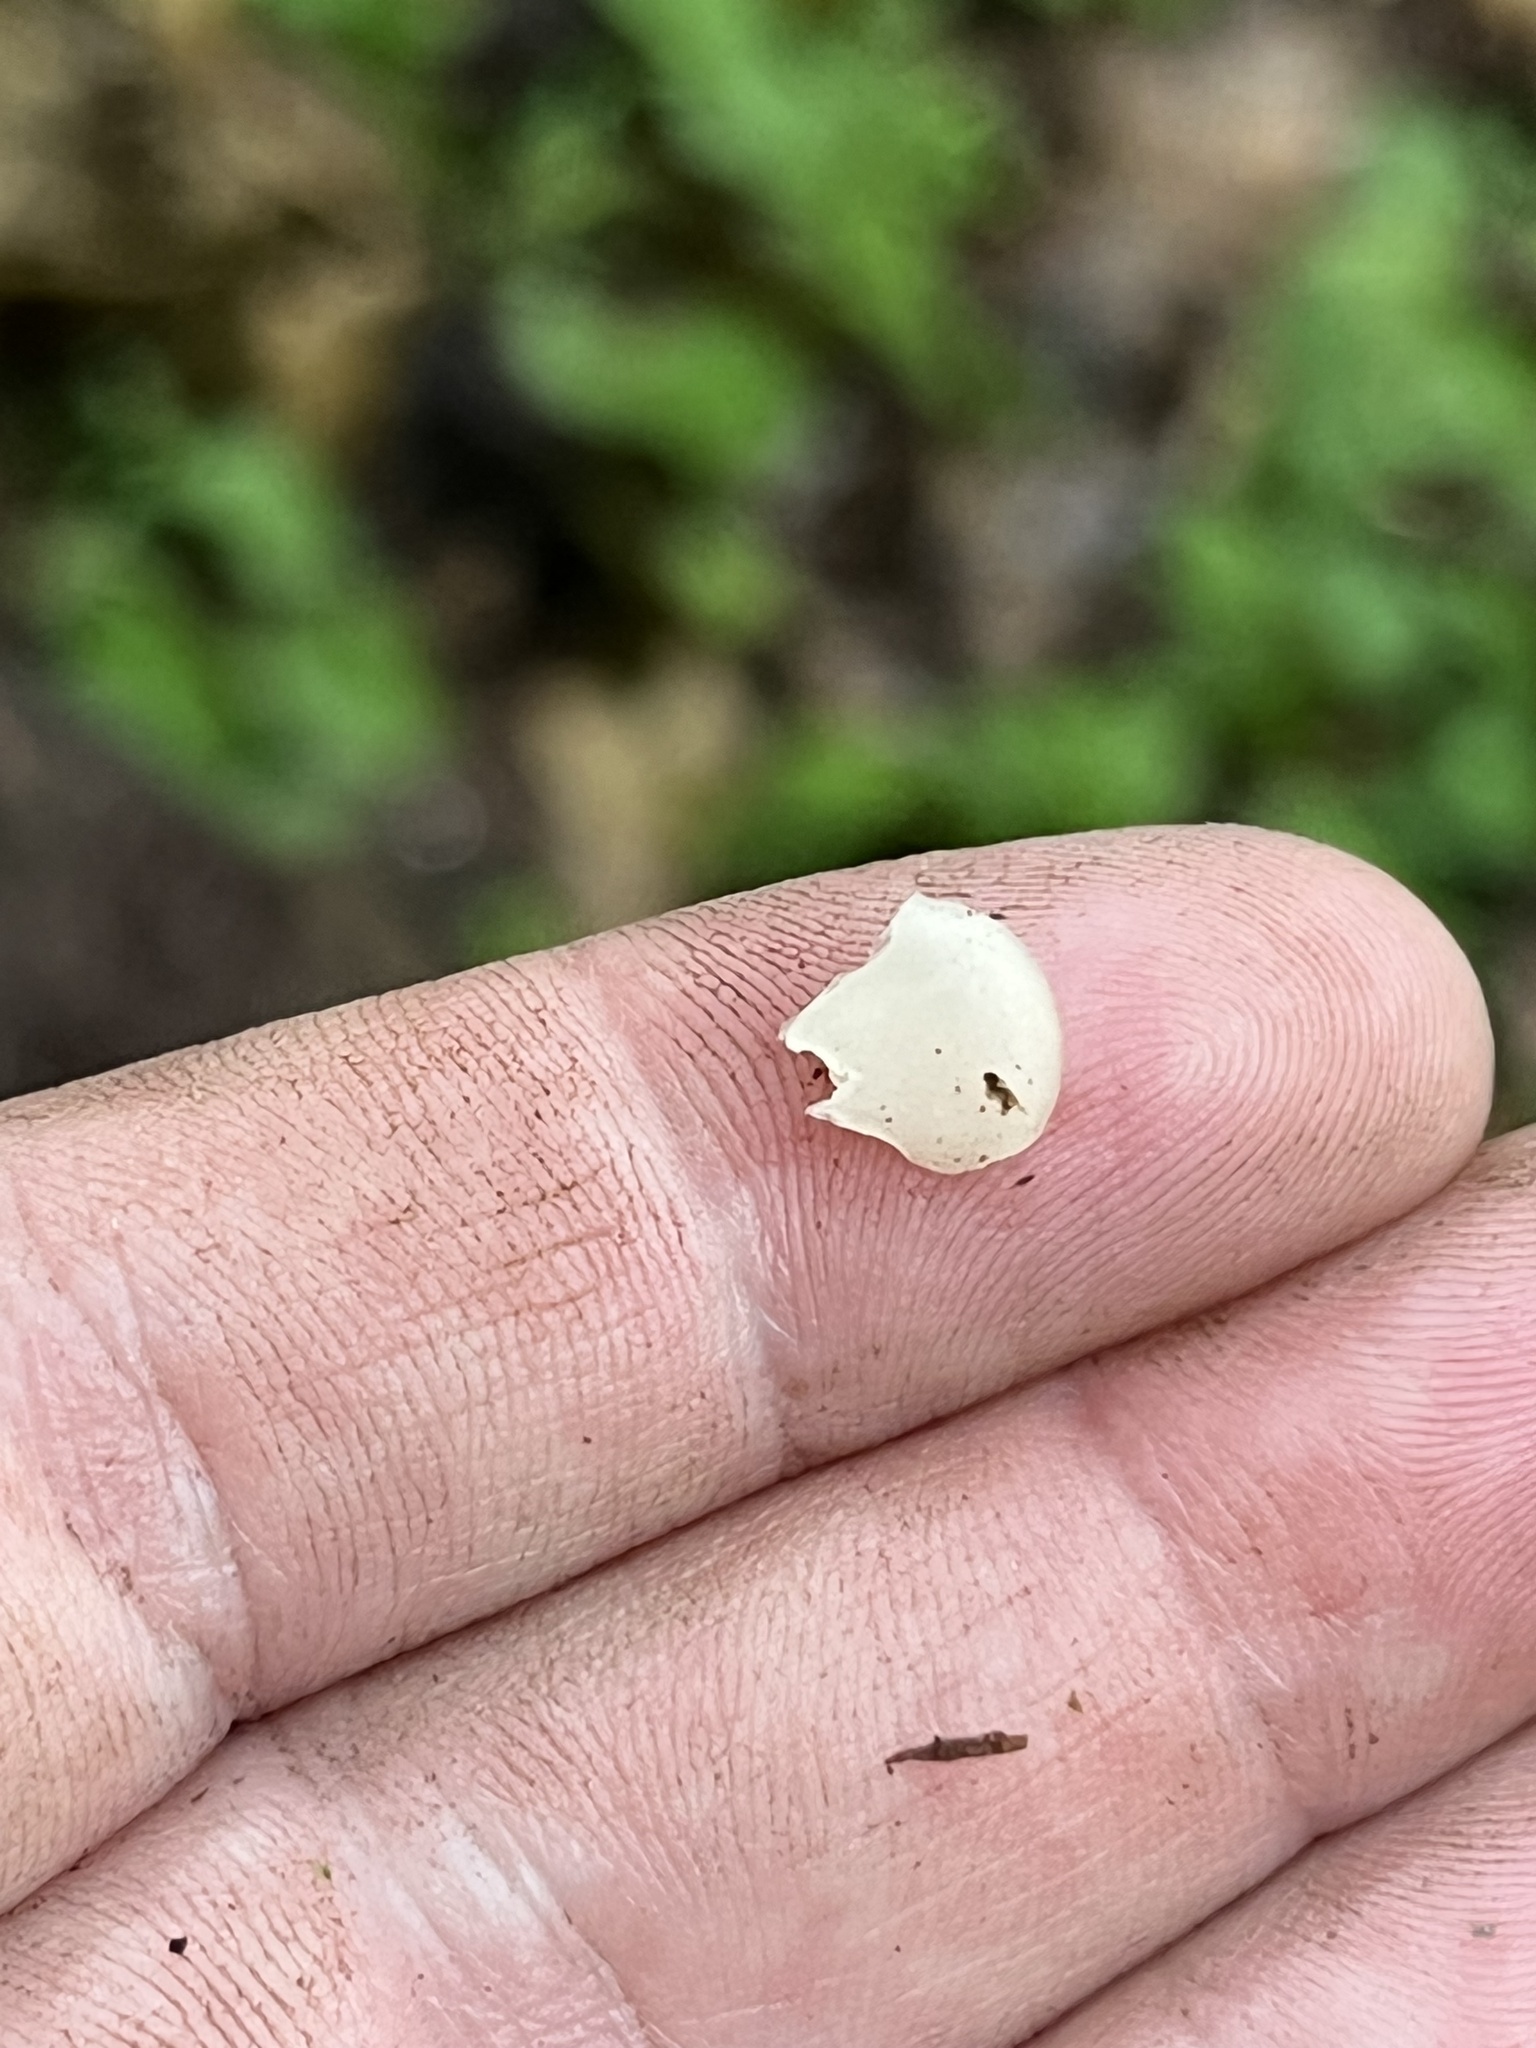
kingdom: Fungi
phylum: Basidiomycota
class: Agaricomycetes
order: Agaricales
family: Crepidotaceae
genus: Crepidotus
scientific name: Crepidotus stipitatus
